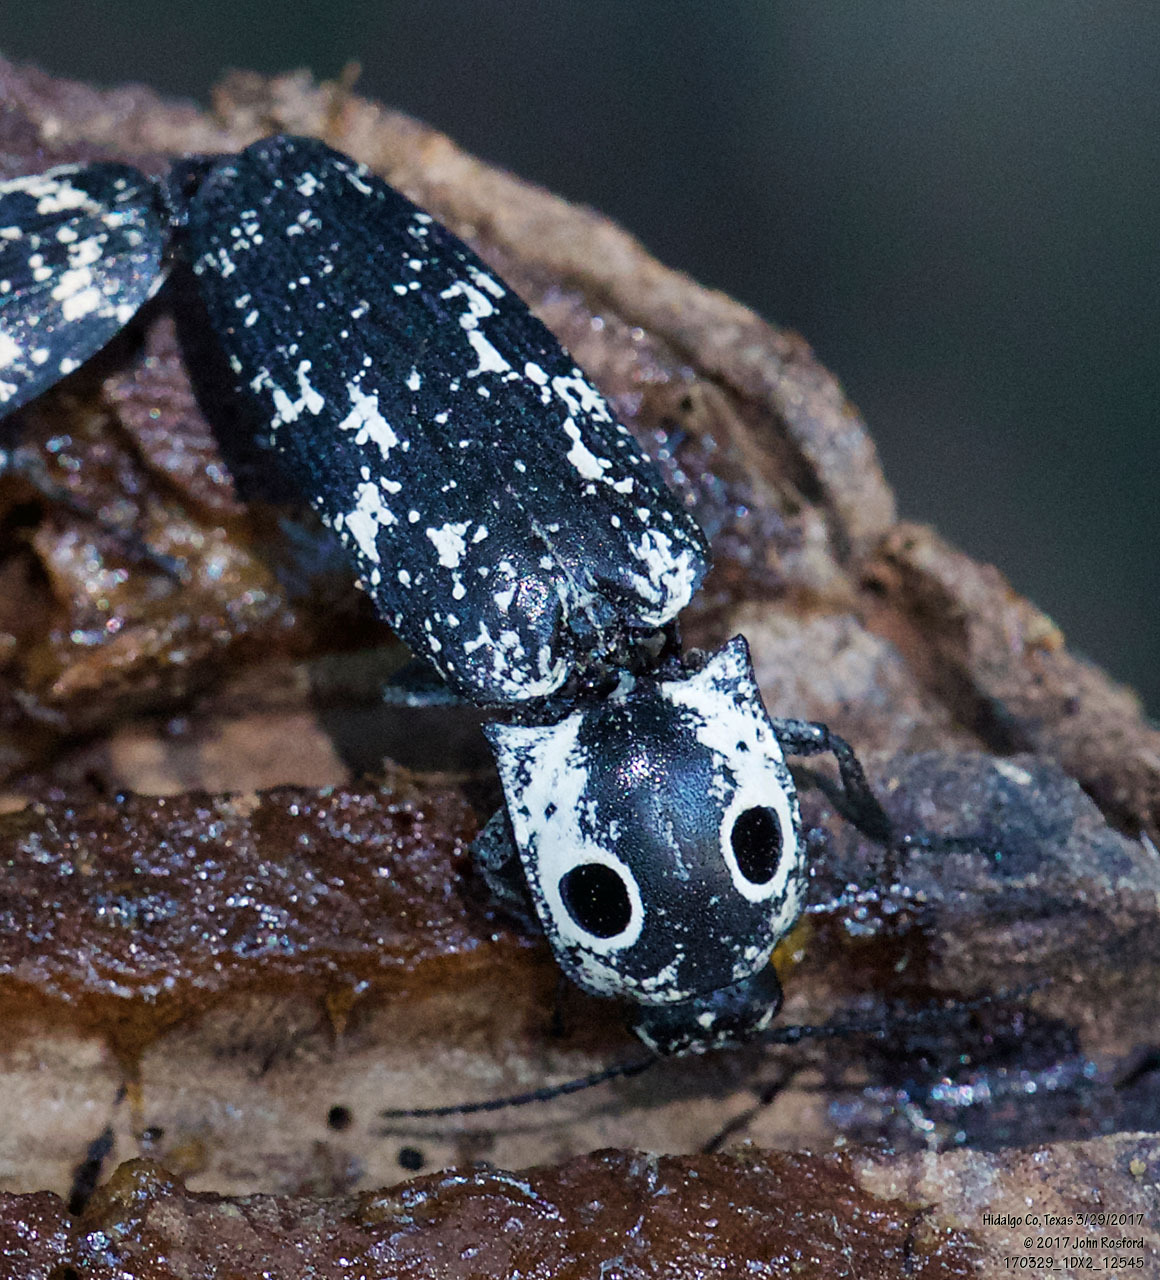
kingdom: Animalia
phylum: Arthropoda
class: Insecta
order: Coleoptera
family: Elateridae
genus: Alaus
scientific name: Alaus
